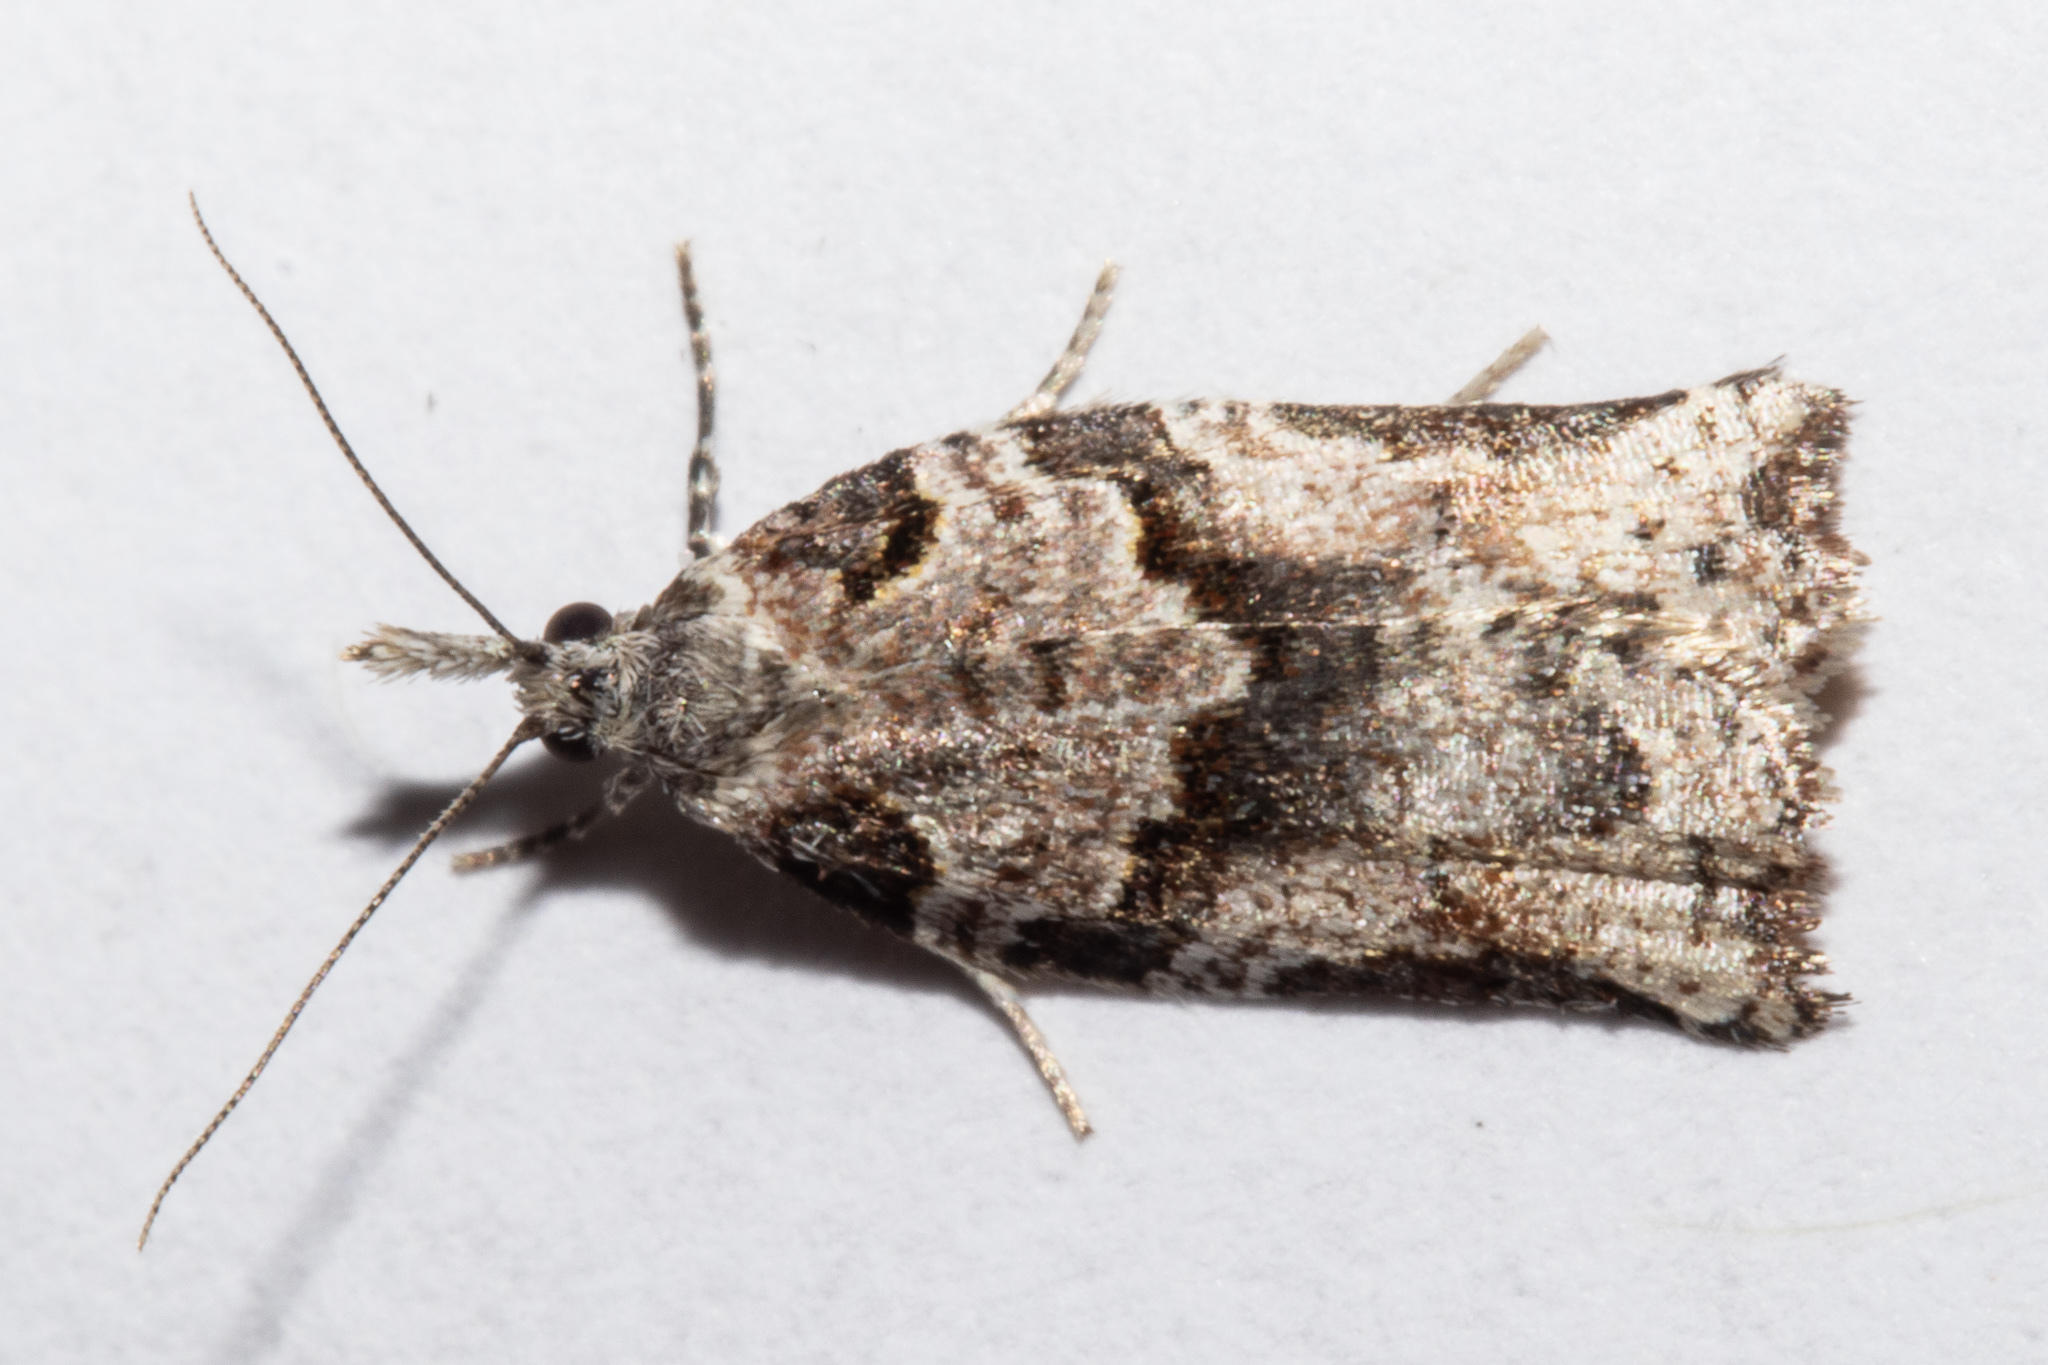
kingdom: Animalia
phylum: Arthropoda
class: Insecta
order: Lepidoptera
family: Tortricidae
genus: Harmologa
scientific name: Harmologa amplexana
